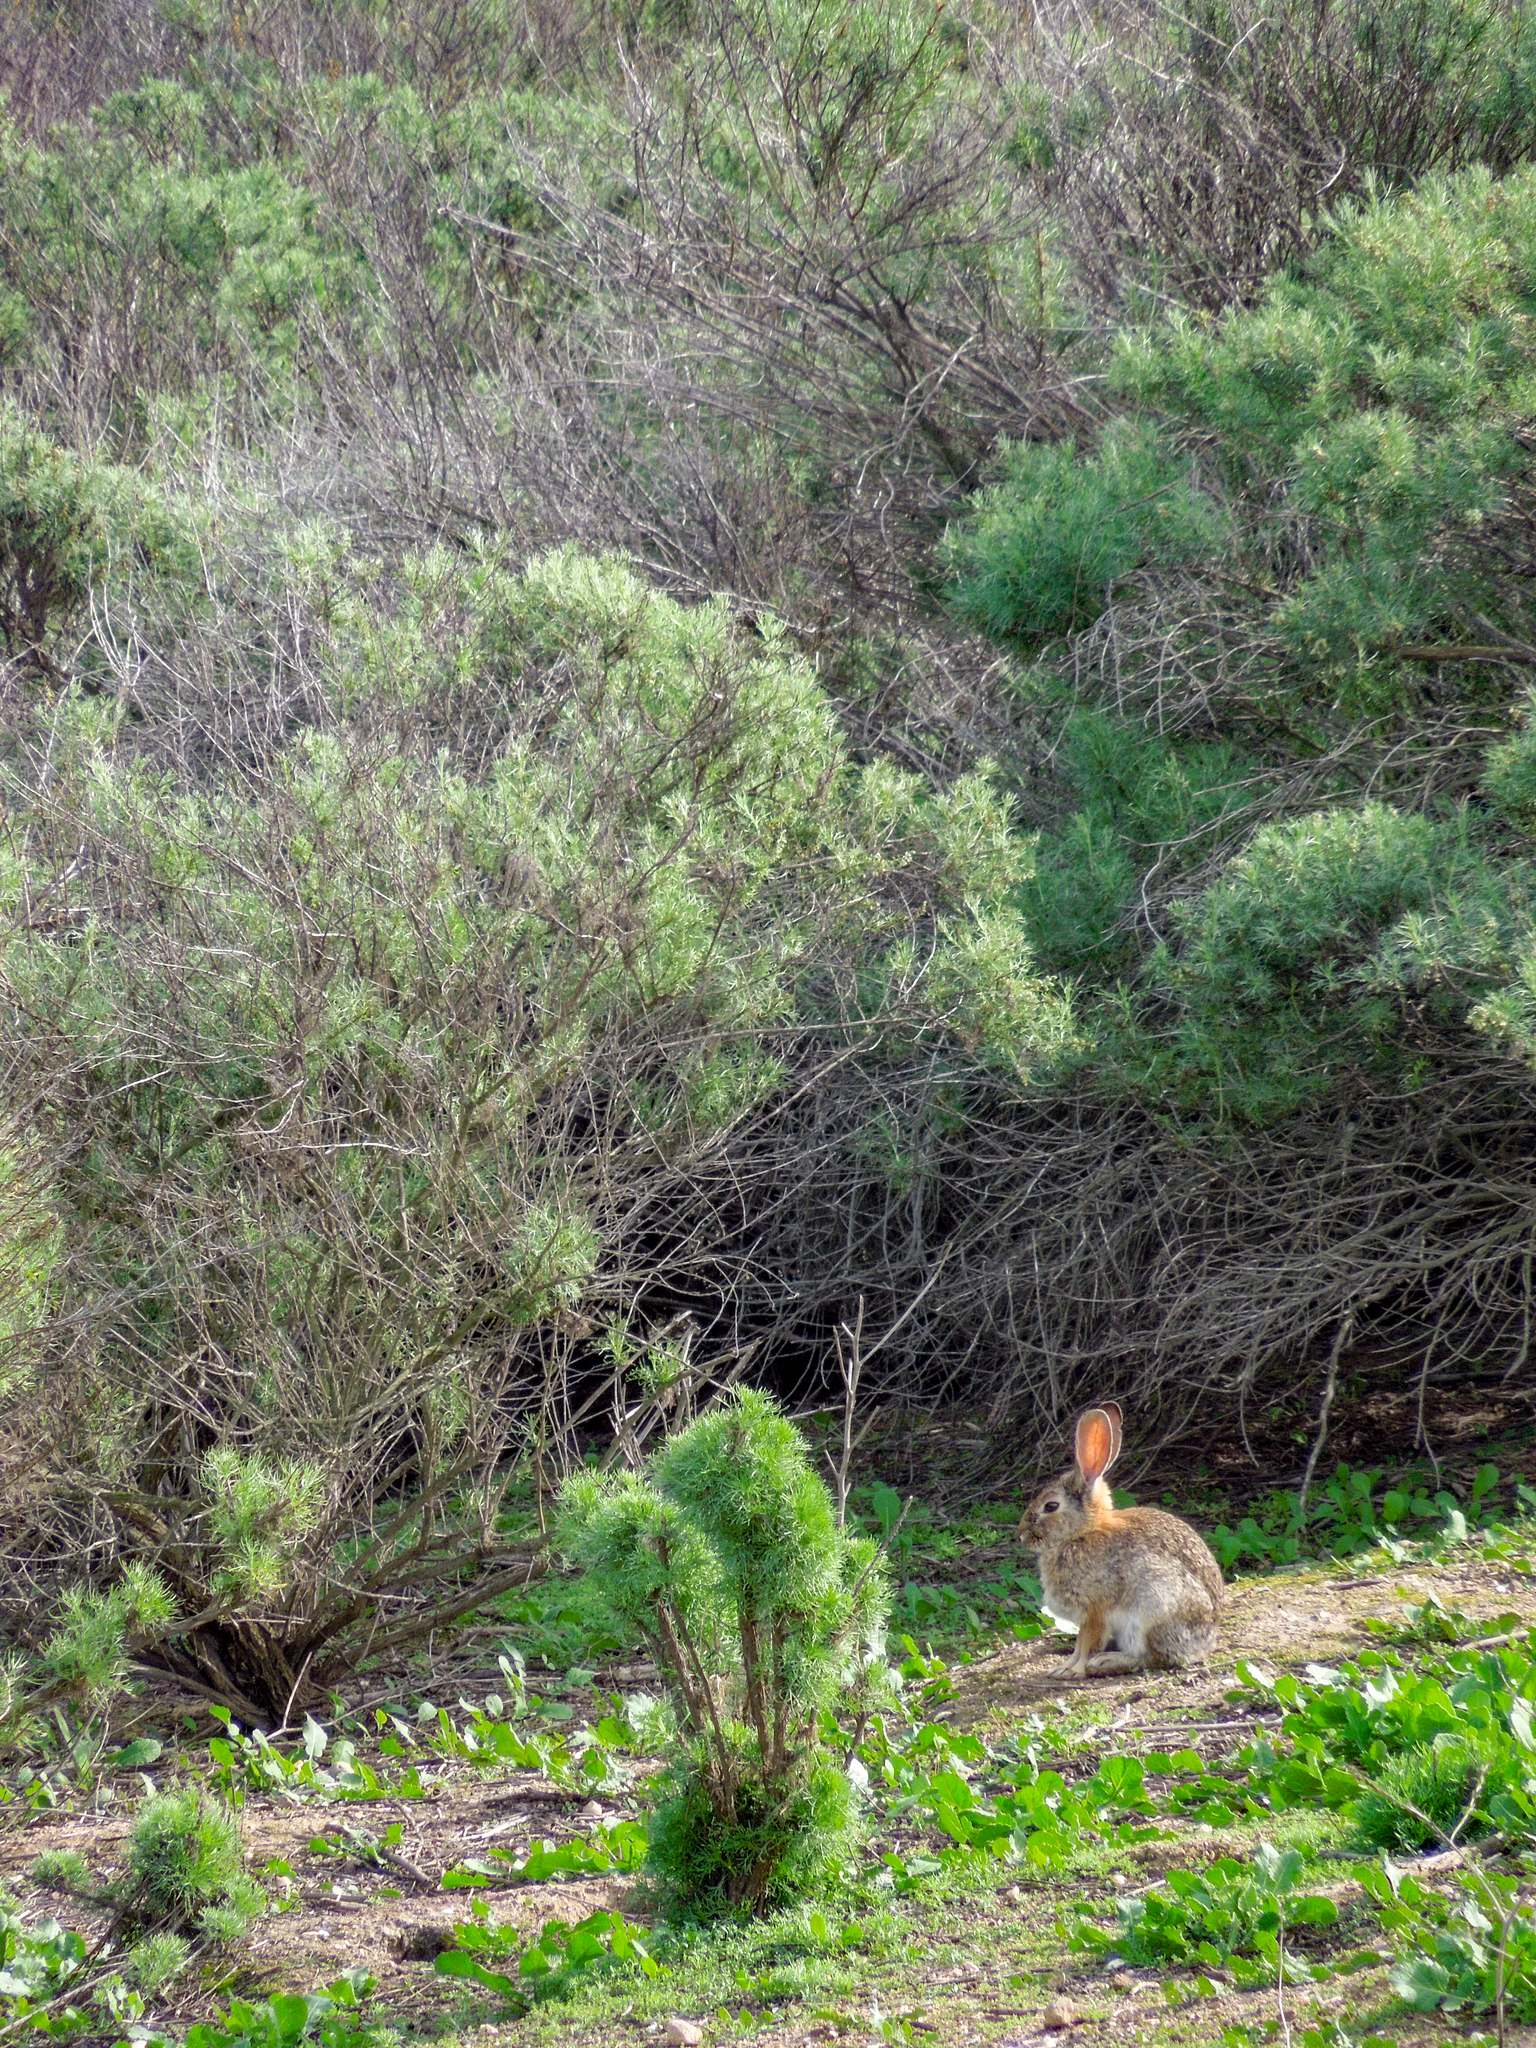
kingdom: Animalia
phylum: Chordata
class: Mammalia
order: Lagomorpha
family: Leporidae
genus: Sylvilagus
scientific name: Sylvilagus audubonii
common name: Desert cottontail
